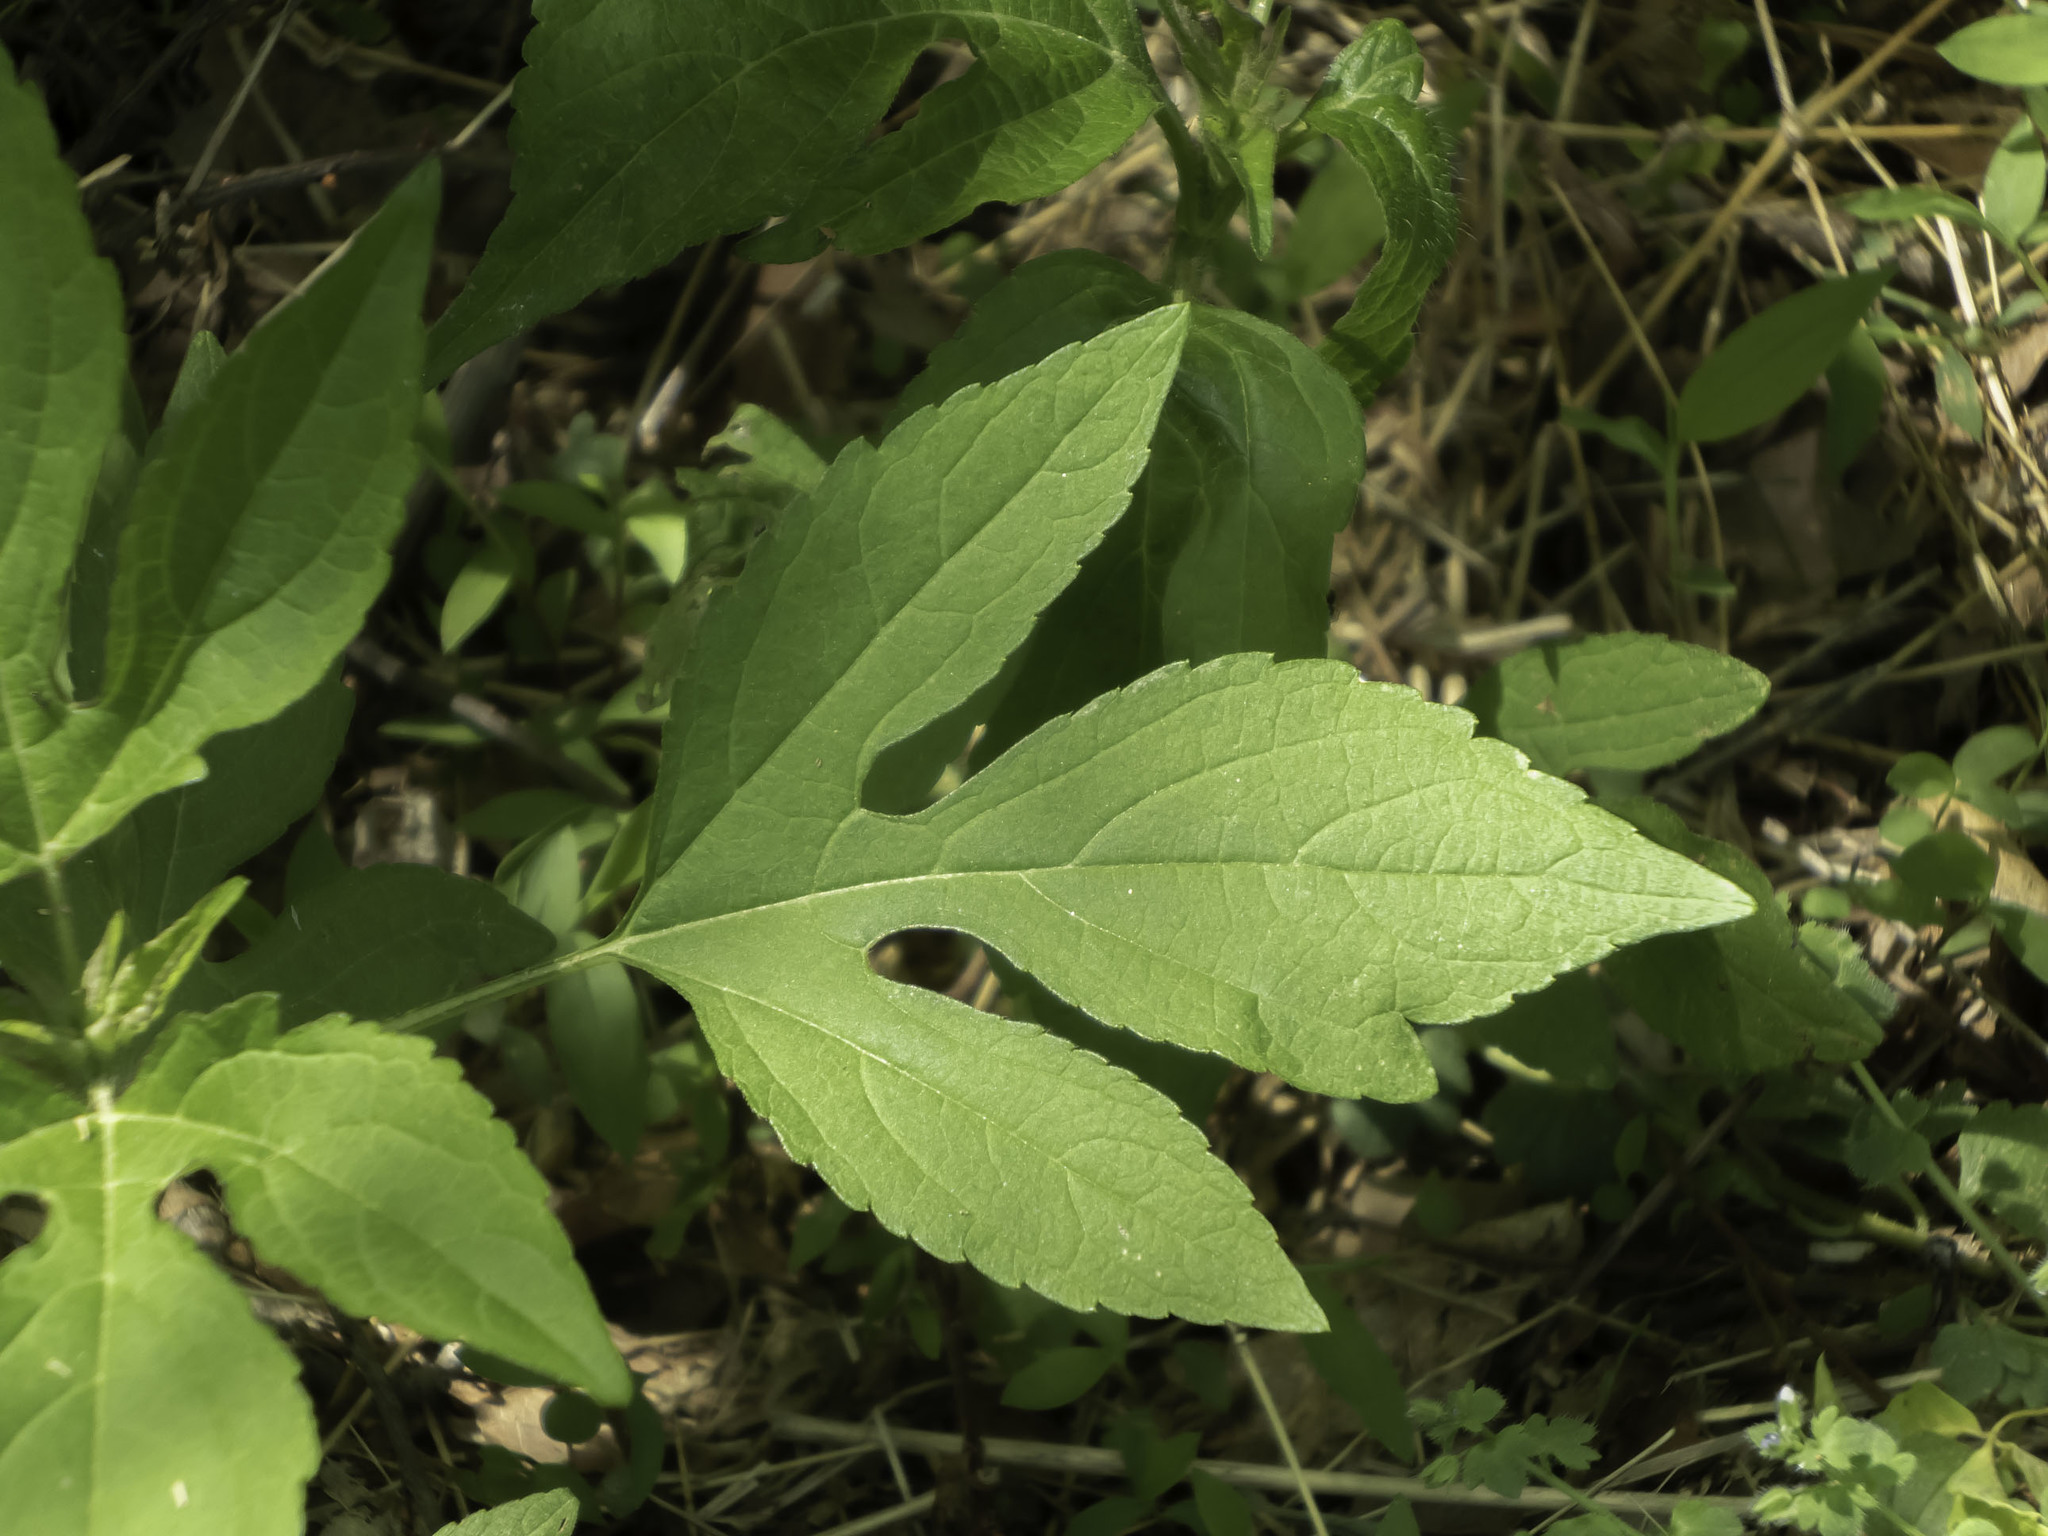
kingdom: Plantae
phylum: Tracheophyta
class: Magnoliopsida
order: Asterales
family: Asteraceae
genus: Ambrosia
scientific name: Ambrosia trifida
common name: Giant ragweed
